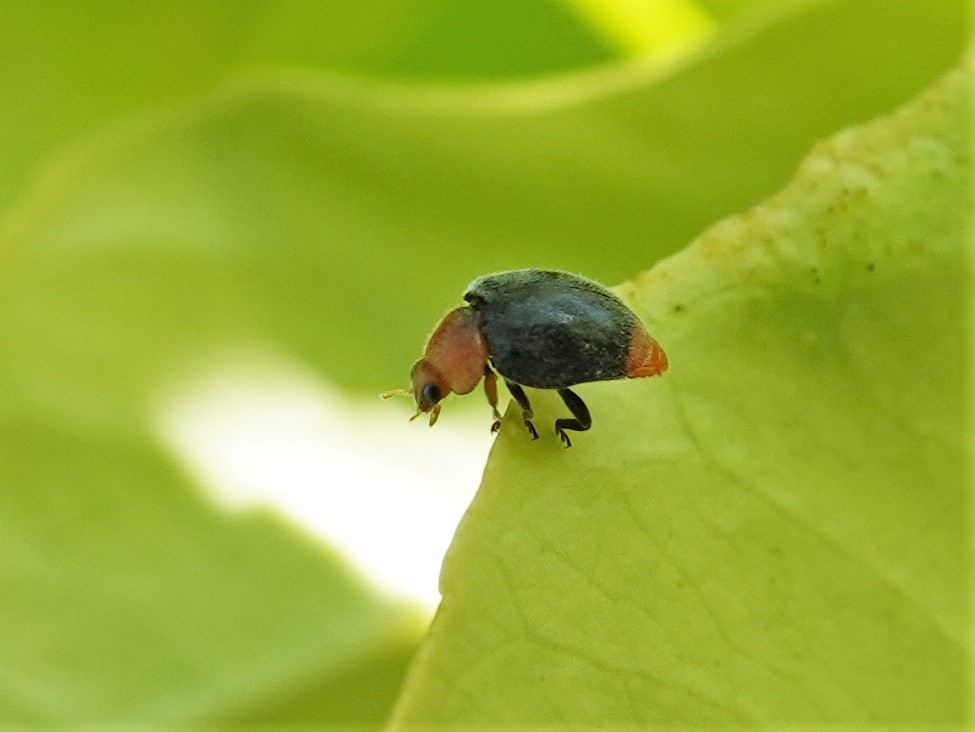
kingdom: Animalia
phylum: Arthropoda
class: Insecta
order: Coleoptera
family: Coccinellidae
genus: Cryptolaemus
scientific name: Cryptolaemus montrouzieri
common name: Mealybug destroyer
